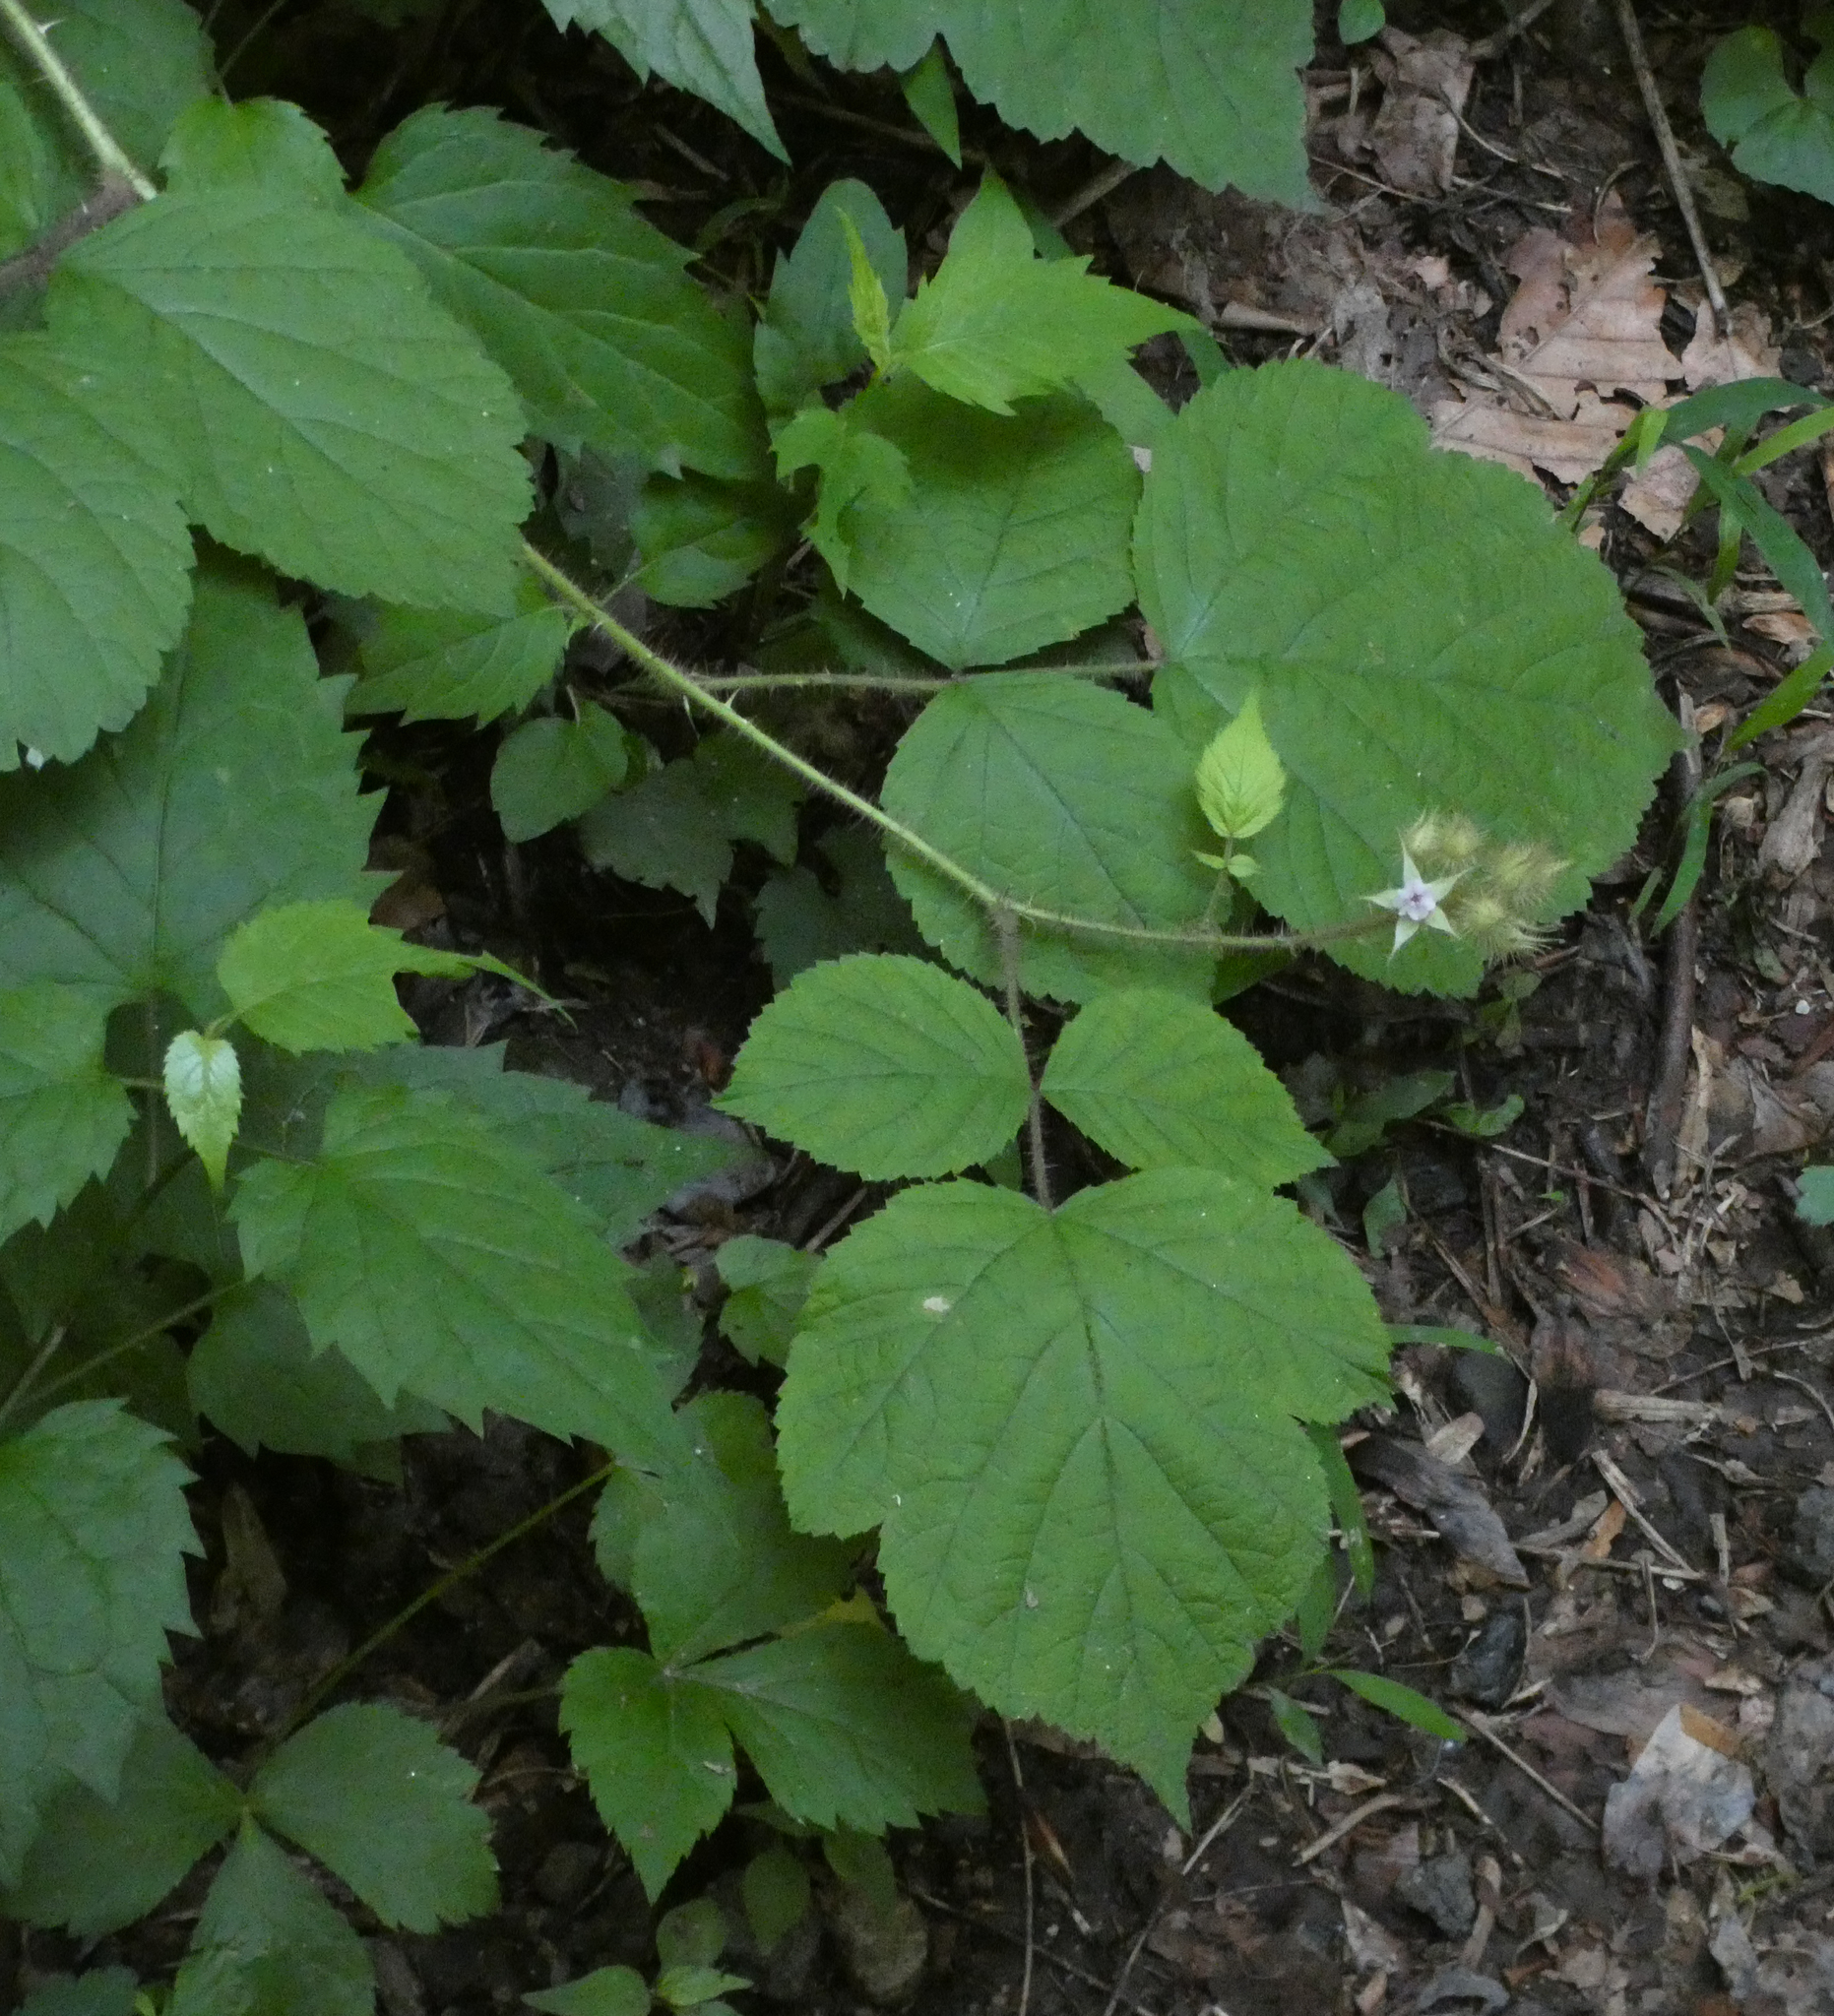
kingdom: Plantae
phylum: Tracheophyta
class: Magnoliopsida
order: Rosales
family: Rosaceae
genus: Rubus
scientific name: Rubus phoenicolasius
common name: Japanese wineberry
